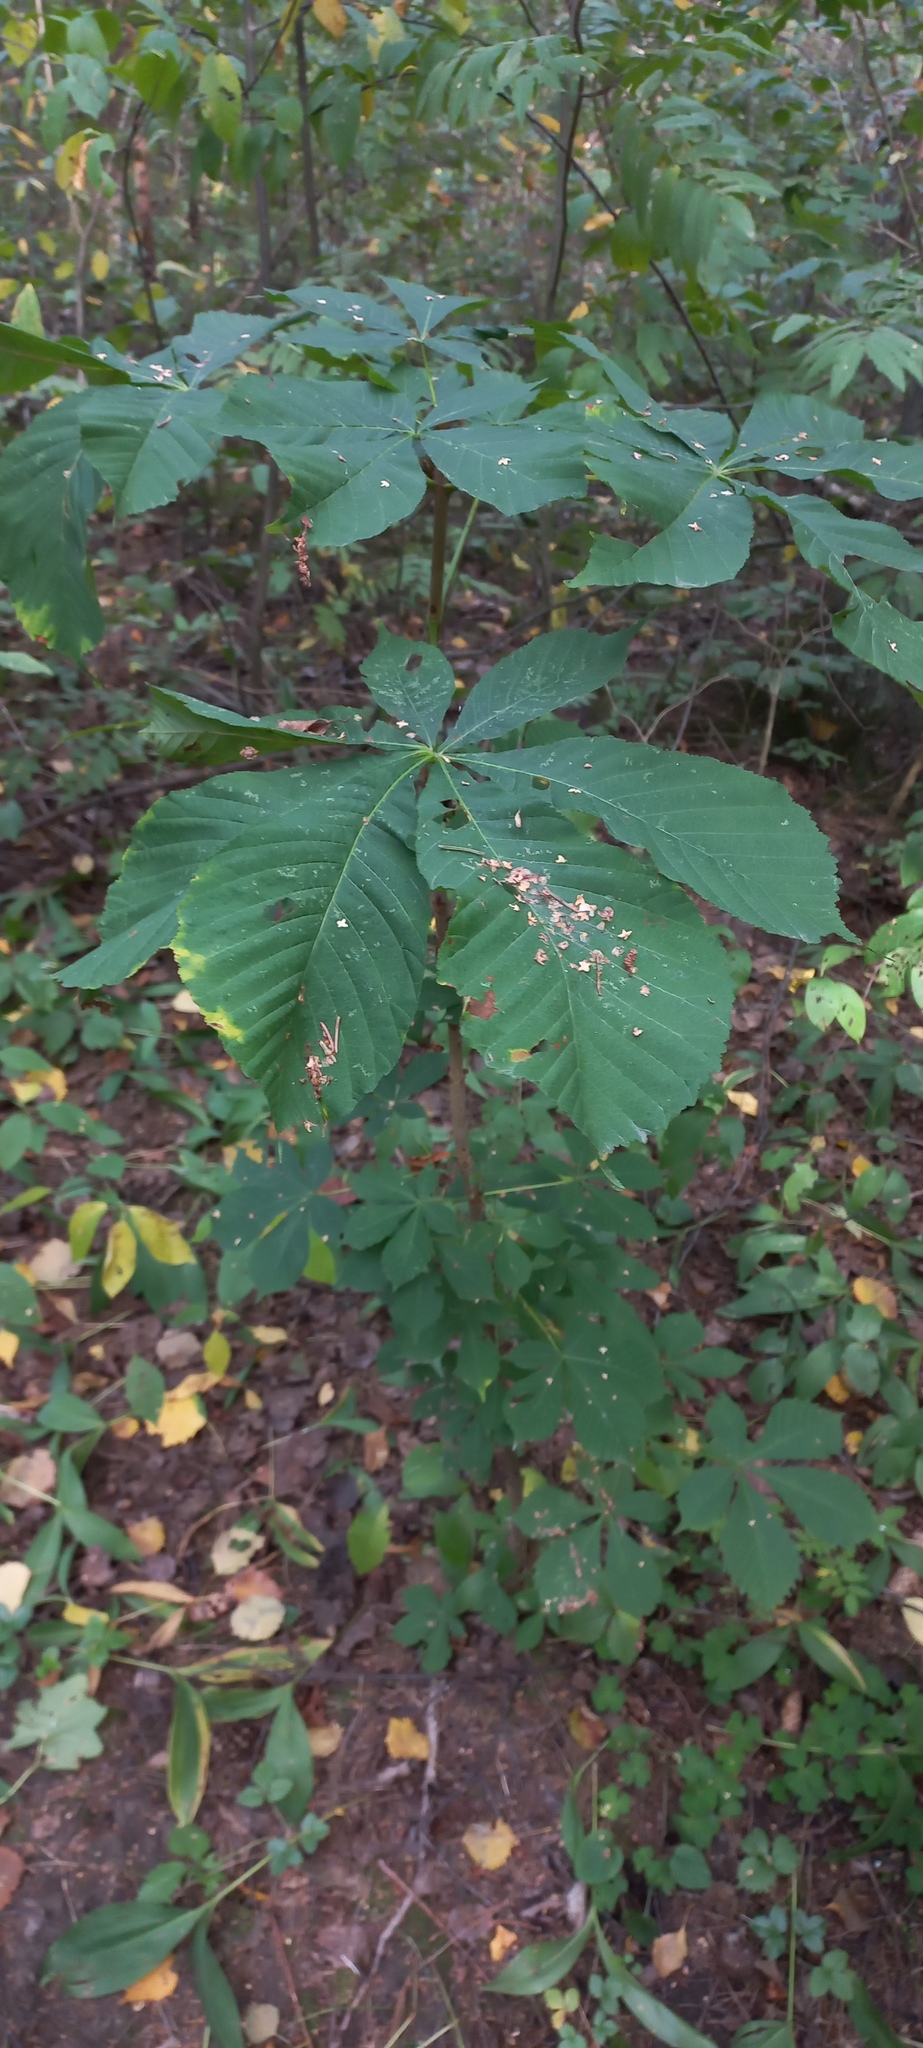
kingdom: Plantae
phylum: Tracheophyta
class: Magnoliopsida
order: Sapindales
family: Sapindaceae
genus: Aesculus
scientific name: Aesculus hippocastanum
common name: Horse-chestnut
